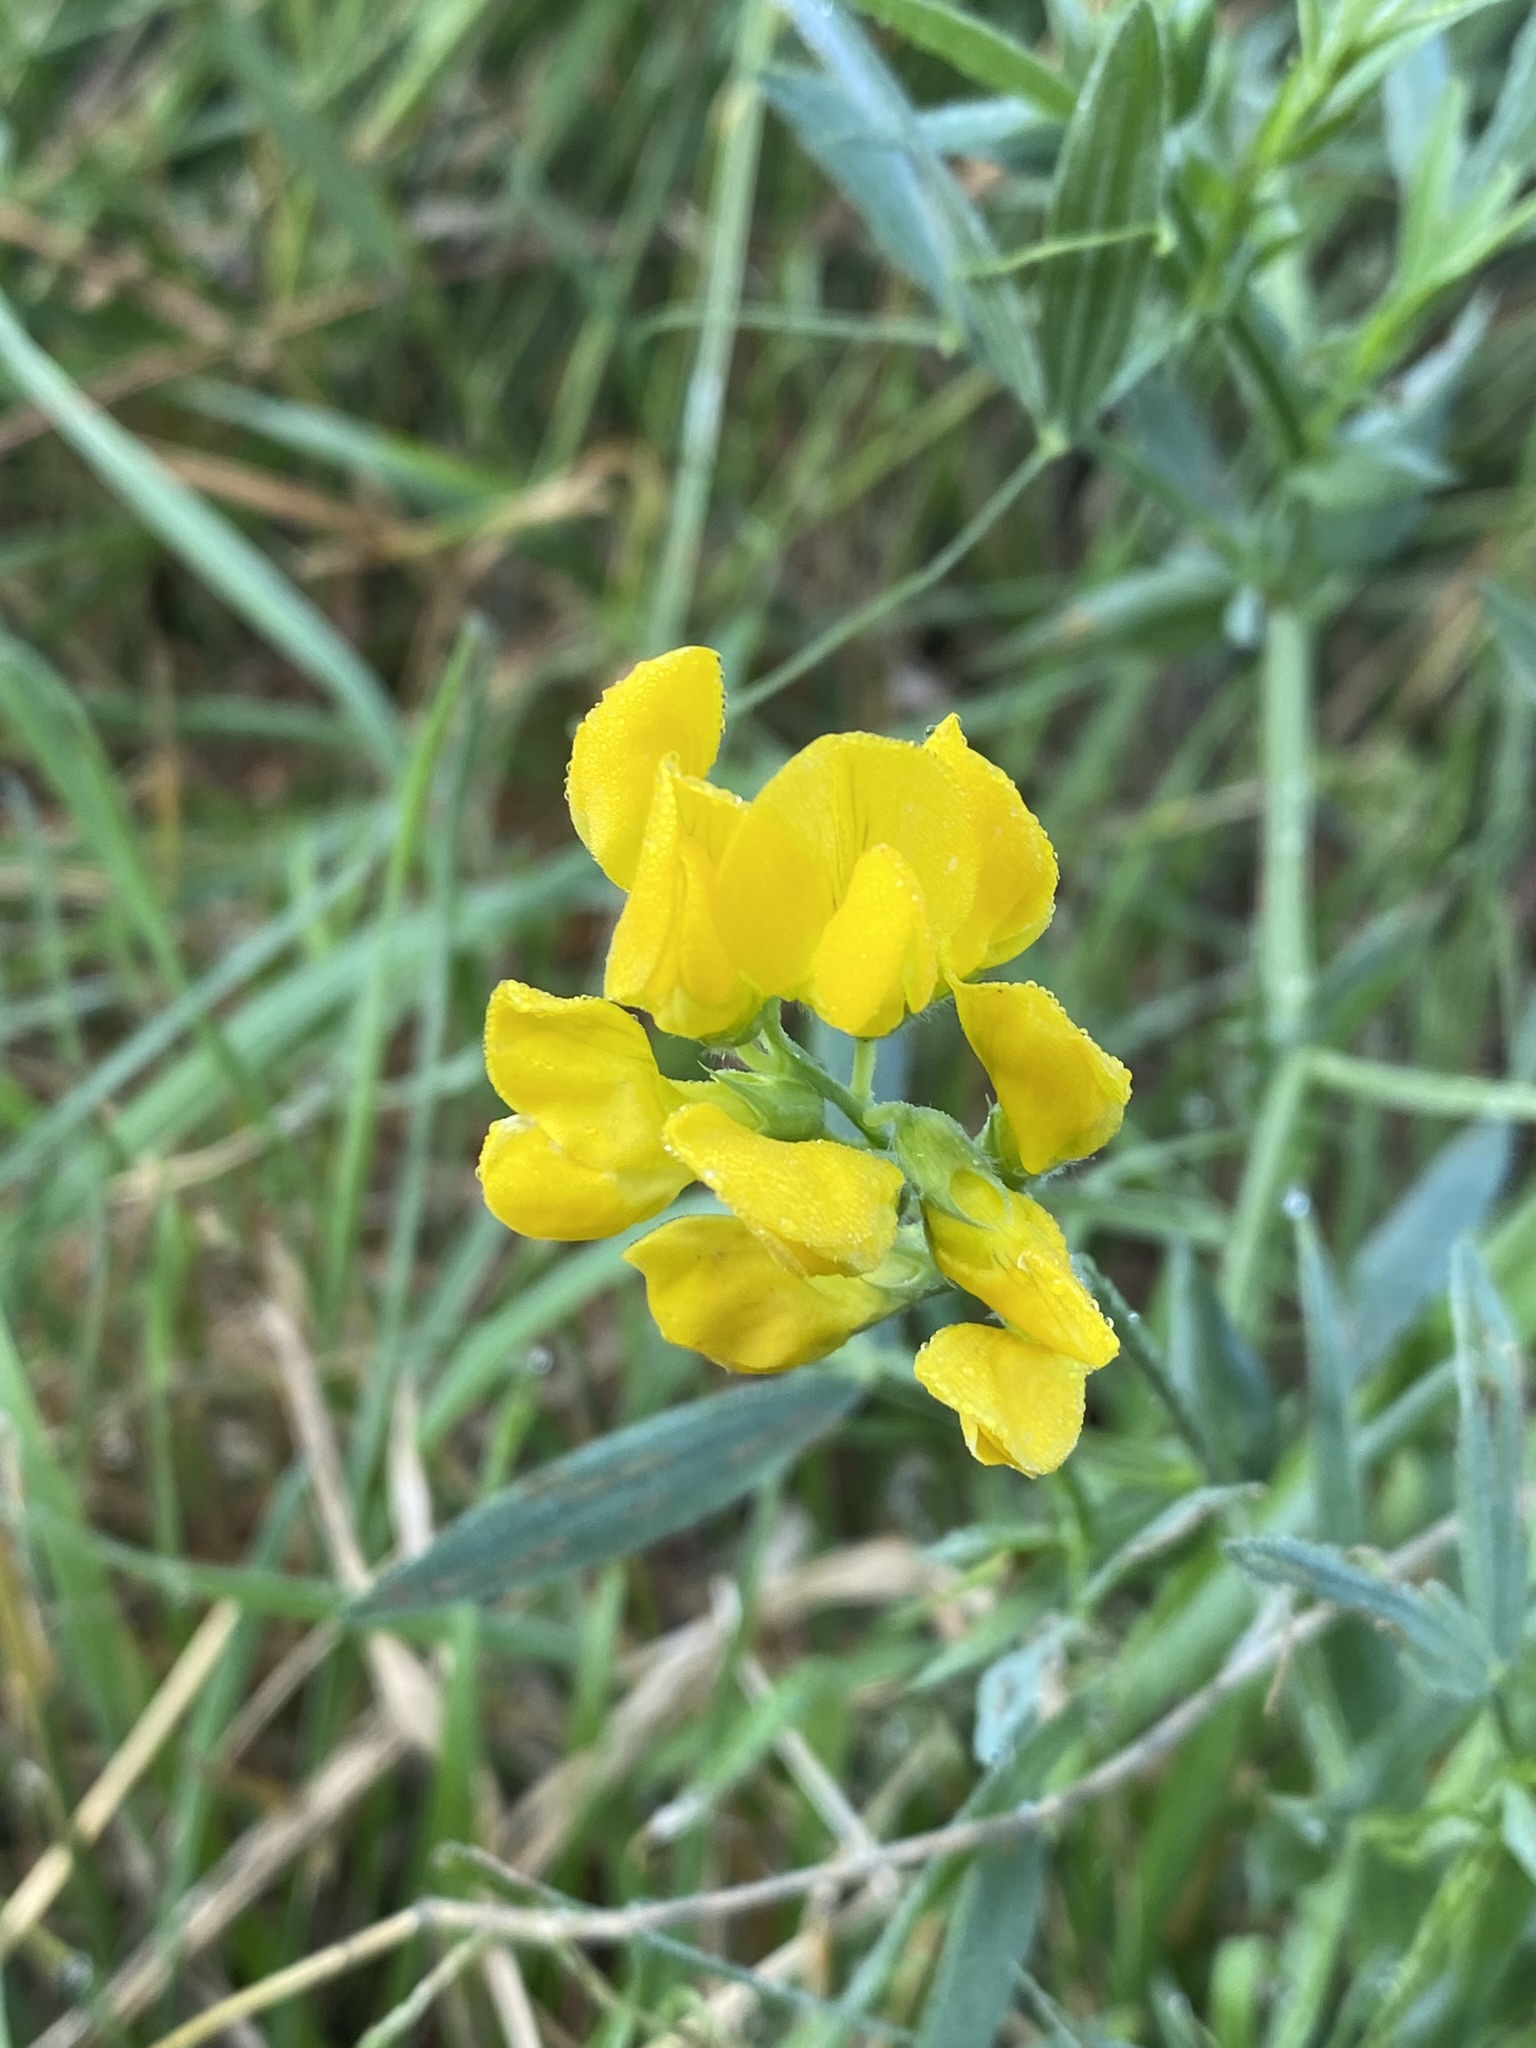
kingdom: Plantae
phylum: Tracheophyta
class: Magnoliopsida
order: Fabales
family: Fabaceae
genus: Lathyrus
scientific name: Lathyrus pratensis
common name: Meadow vetchling
